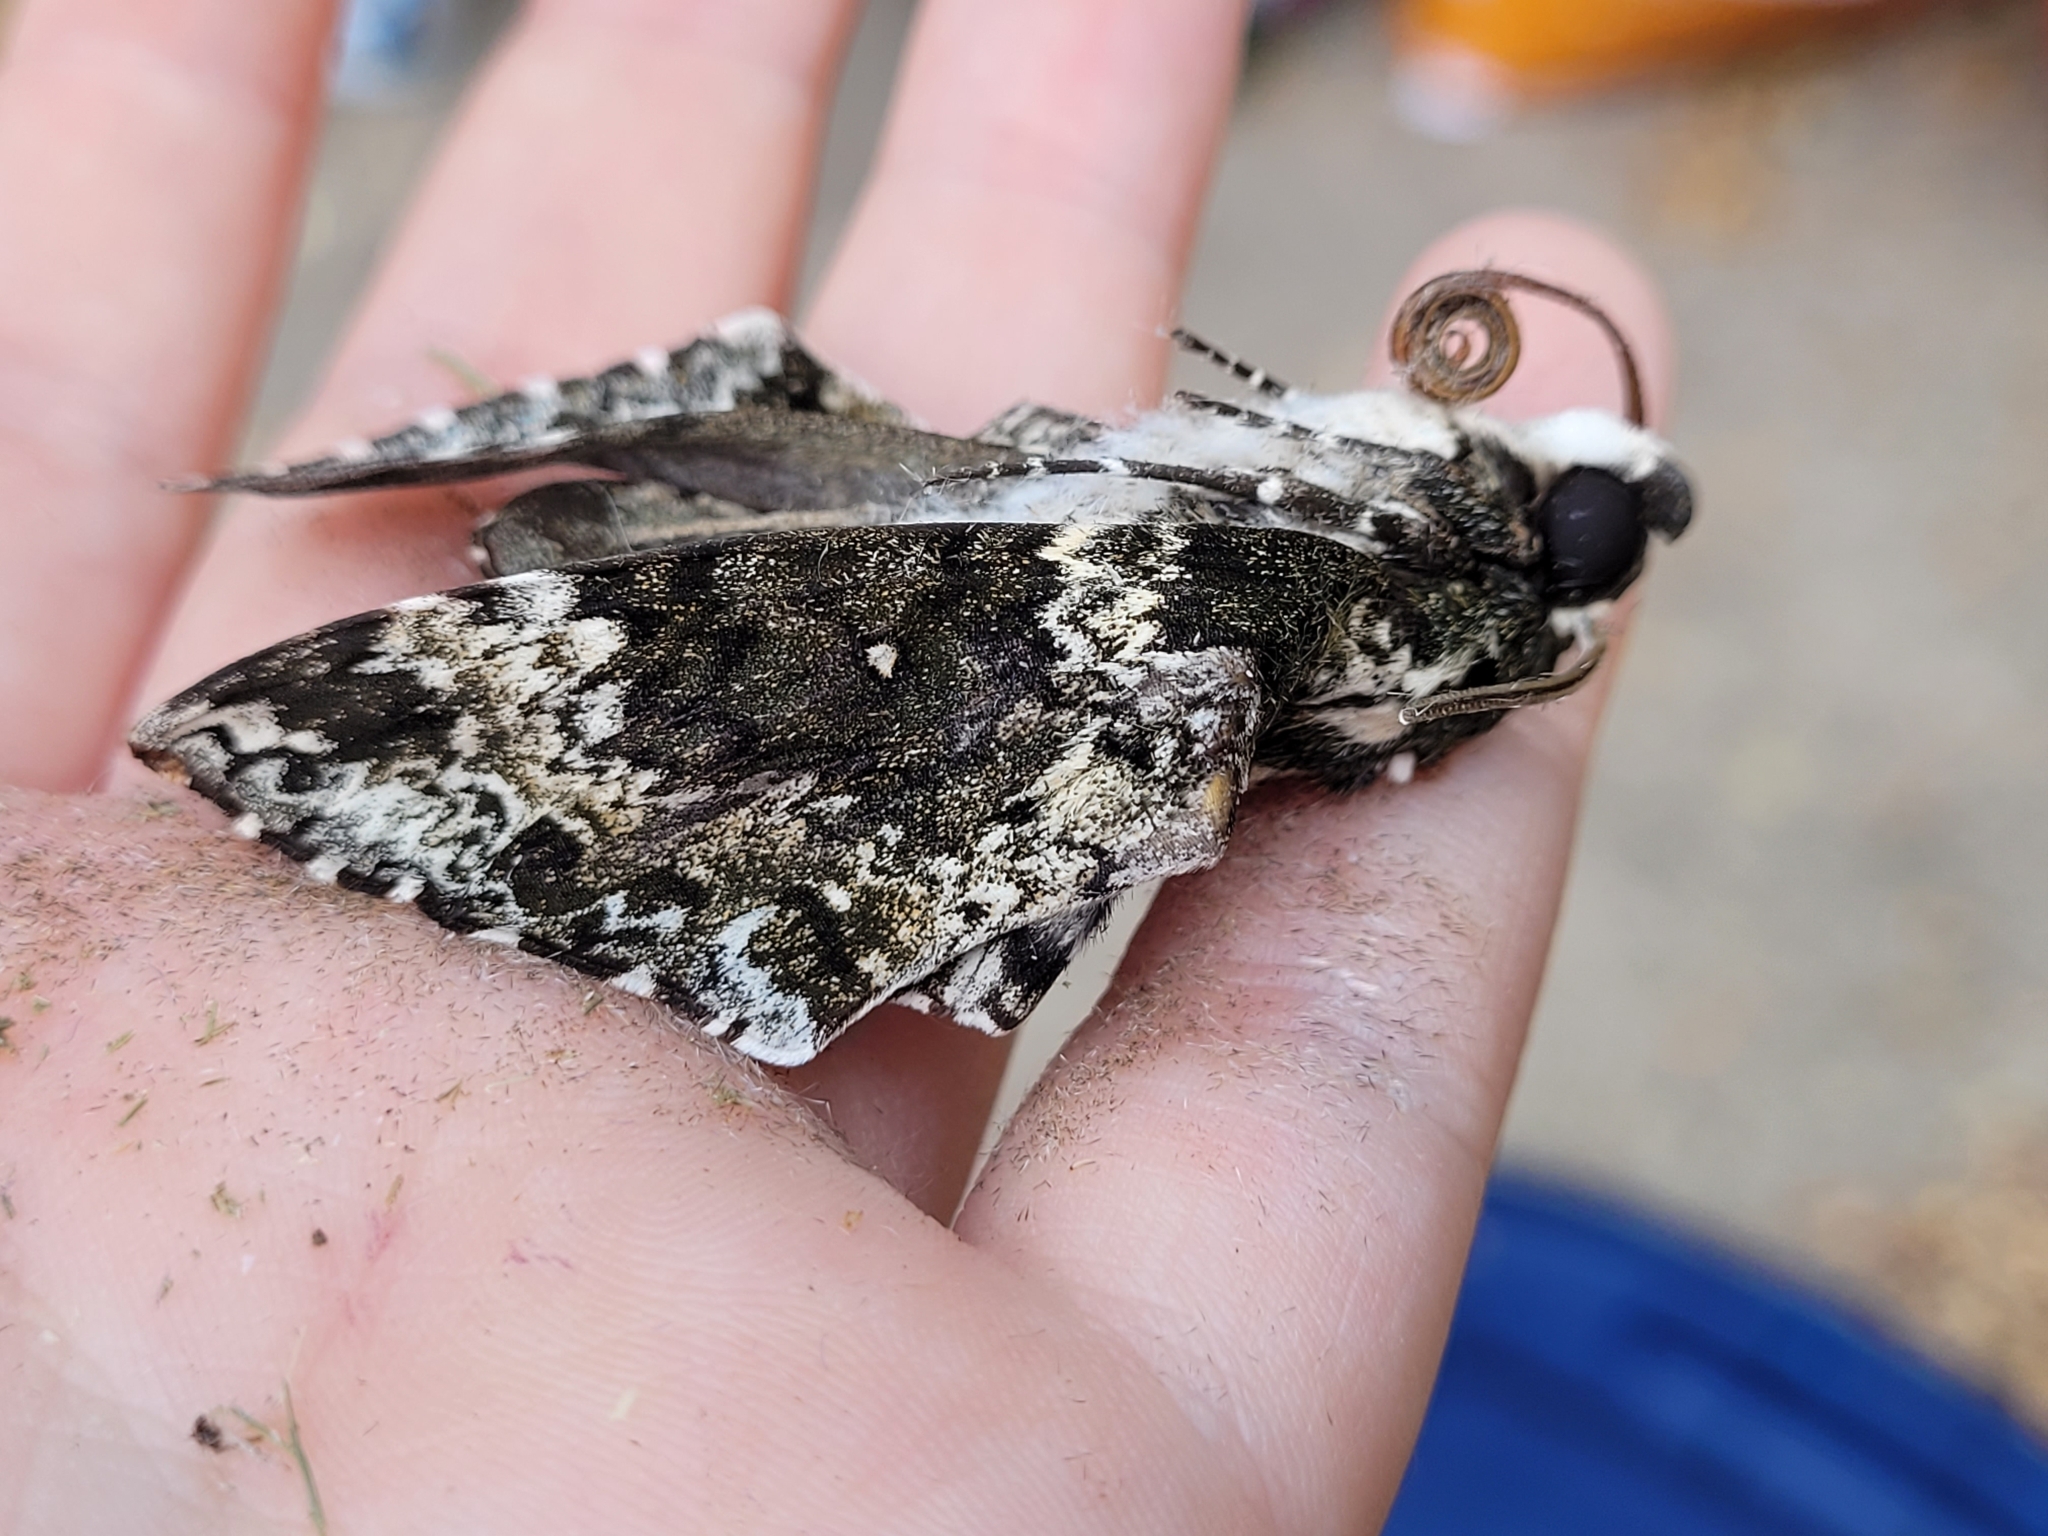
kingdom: Animalia
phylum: Arthropoda
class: Insecta
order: Lepidoptera
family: Sphingidae
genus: Manduca
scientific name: Manduca rustica
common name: Rustic sphinx
